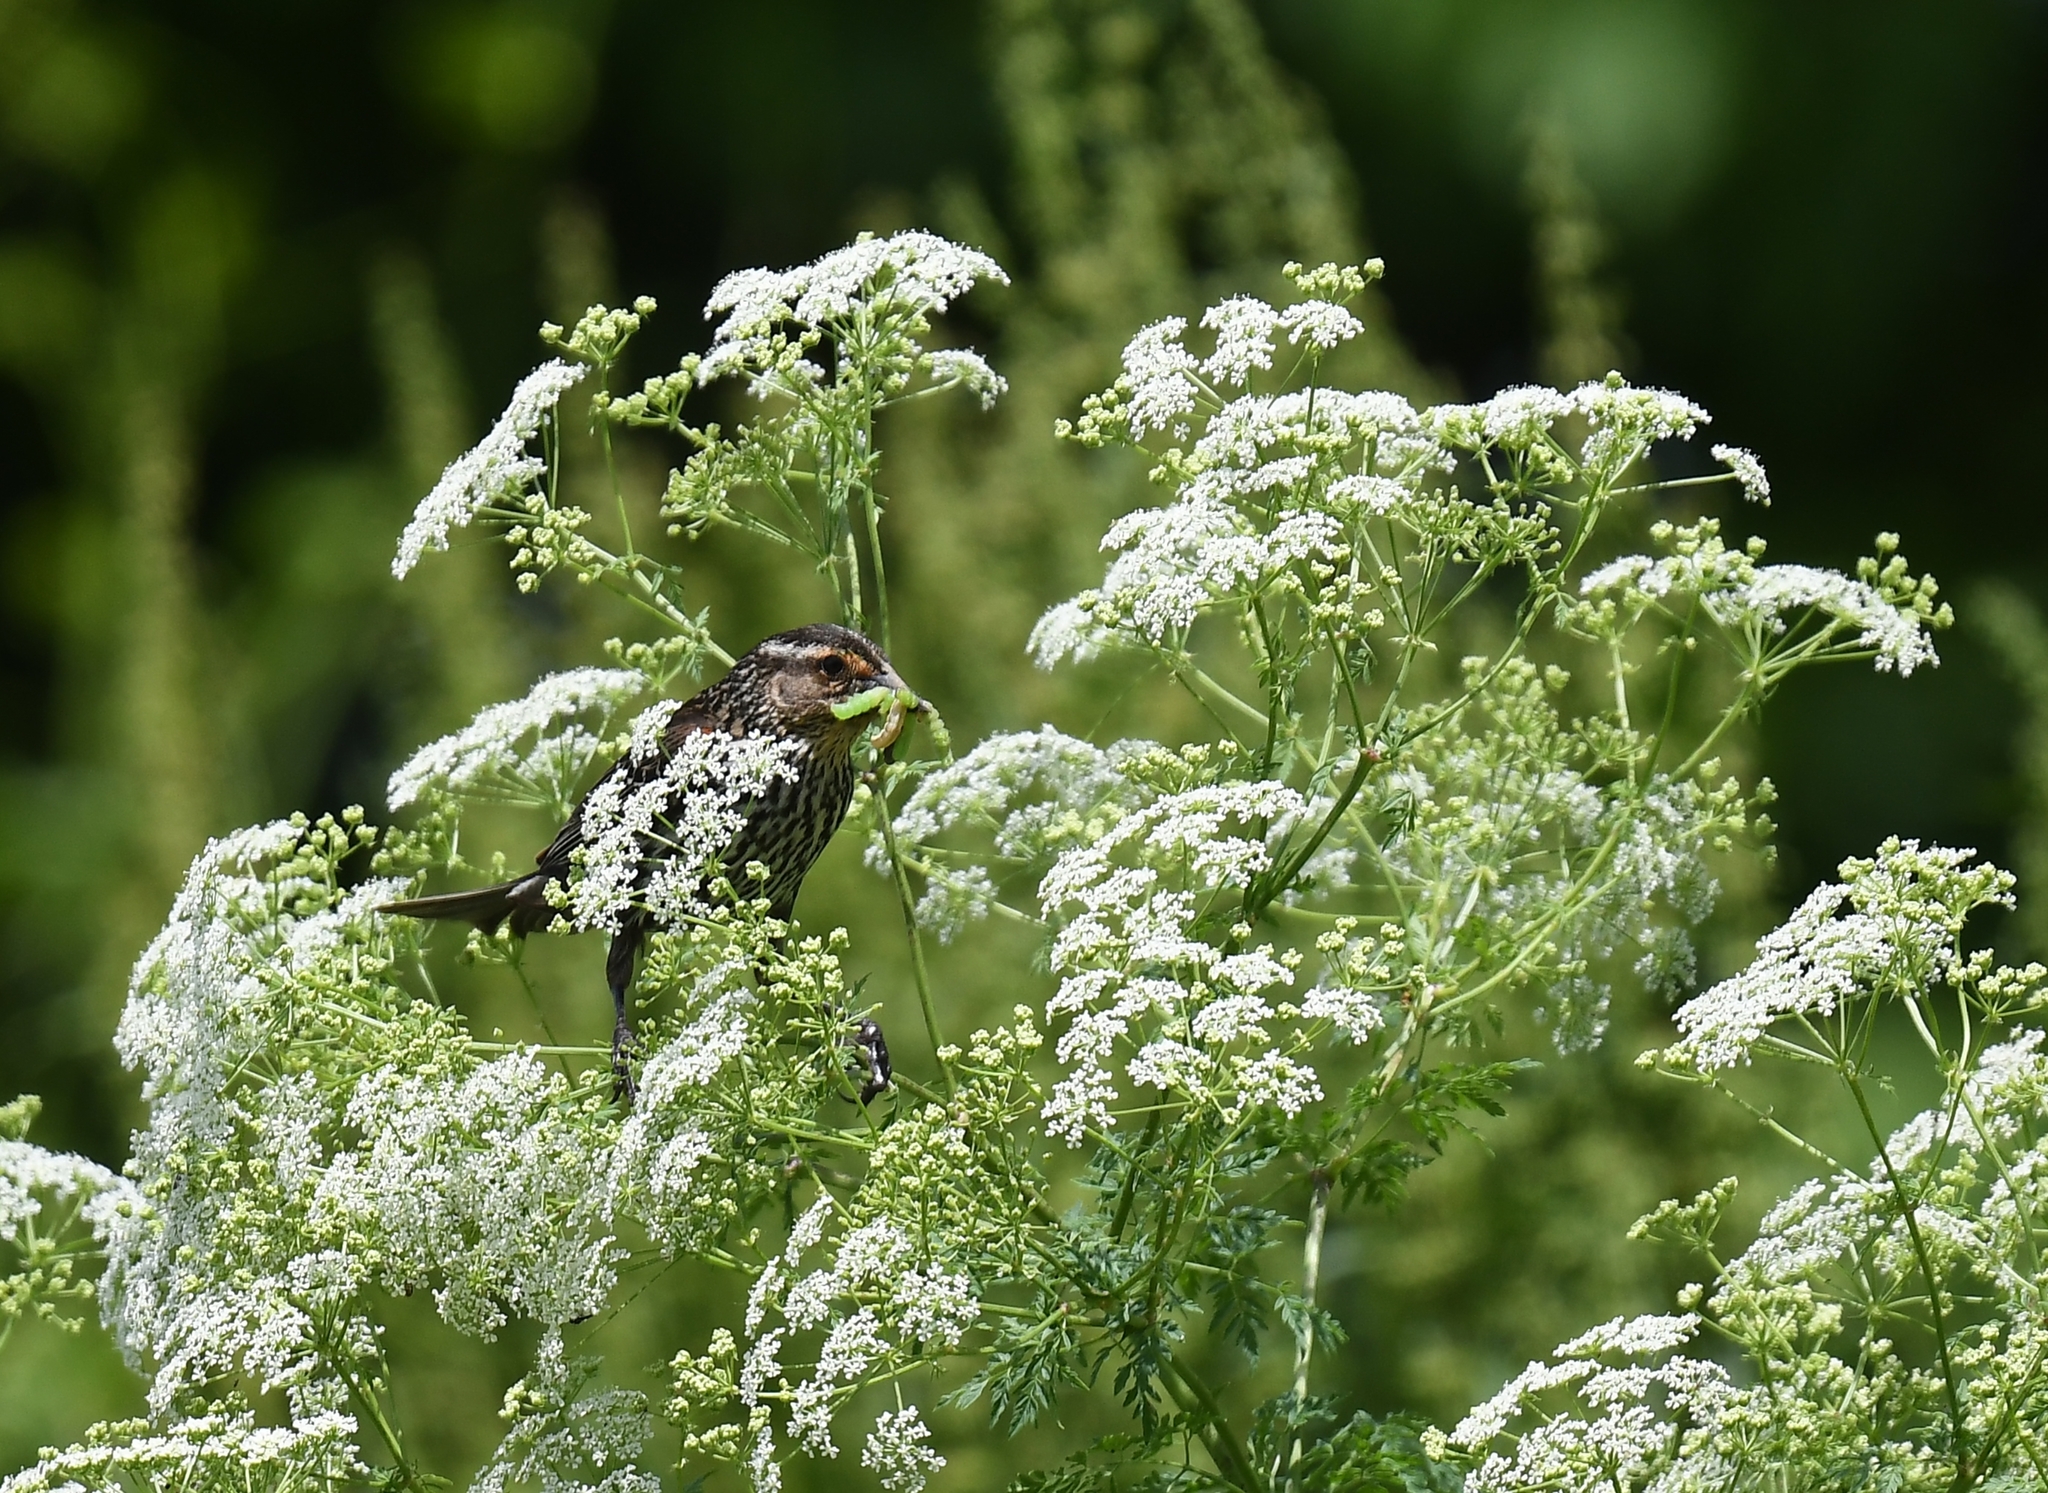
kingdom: Animalia
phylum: Chordata
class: Aves
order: Passeriformes
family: Icteridae
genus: Agelaius
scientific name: Agelaius phoeniceus
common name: Red-winged blackbird
